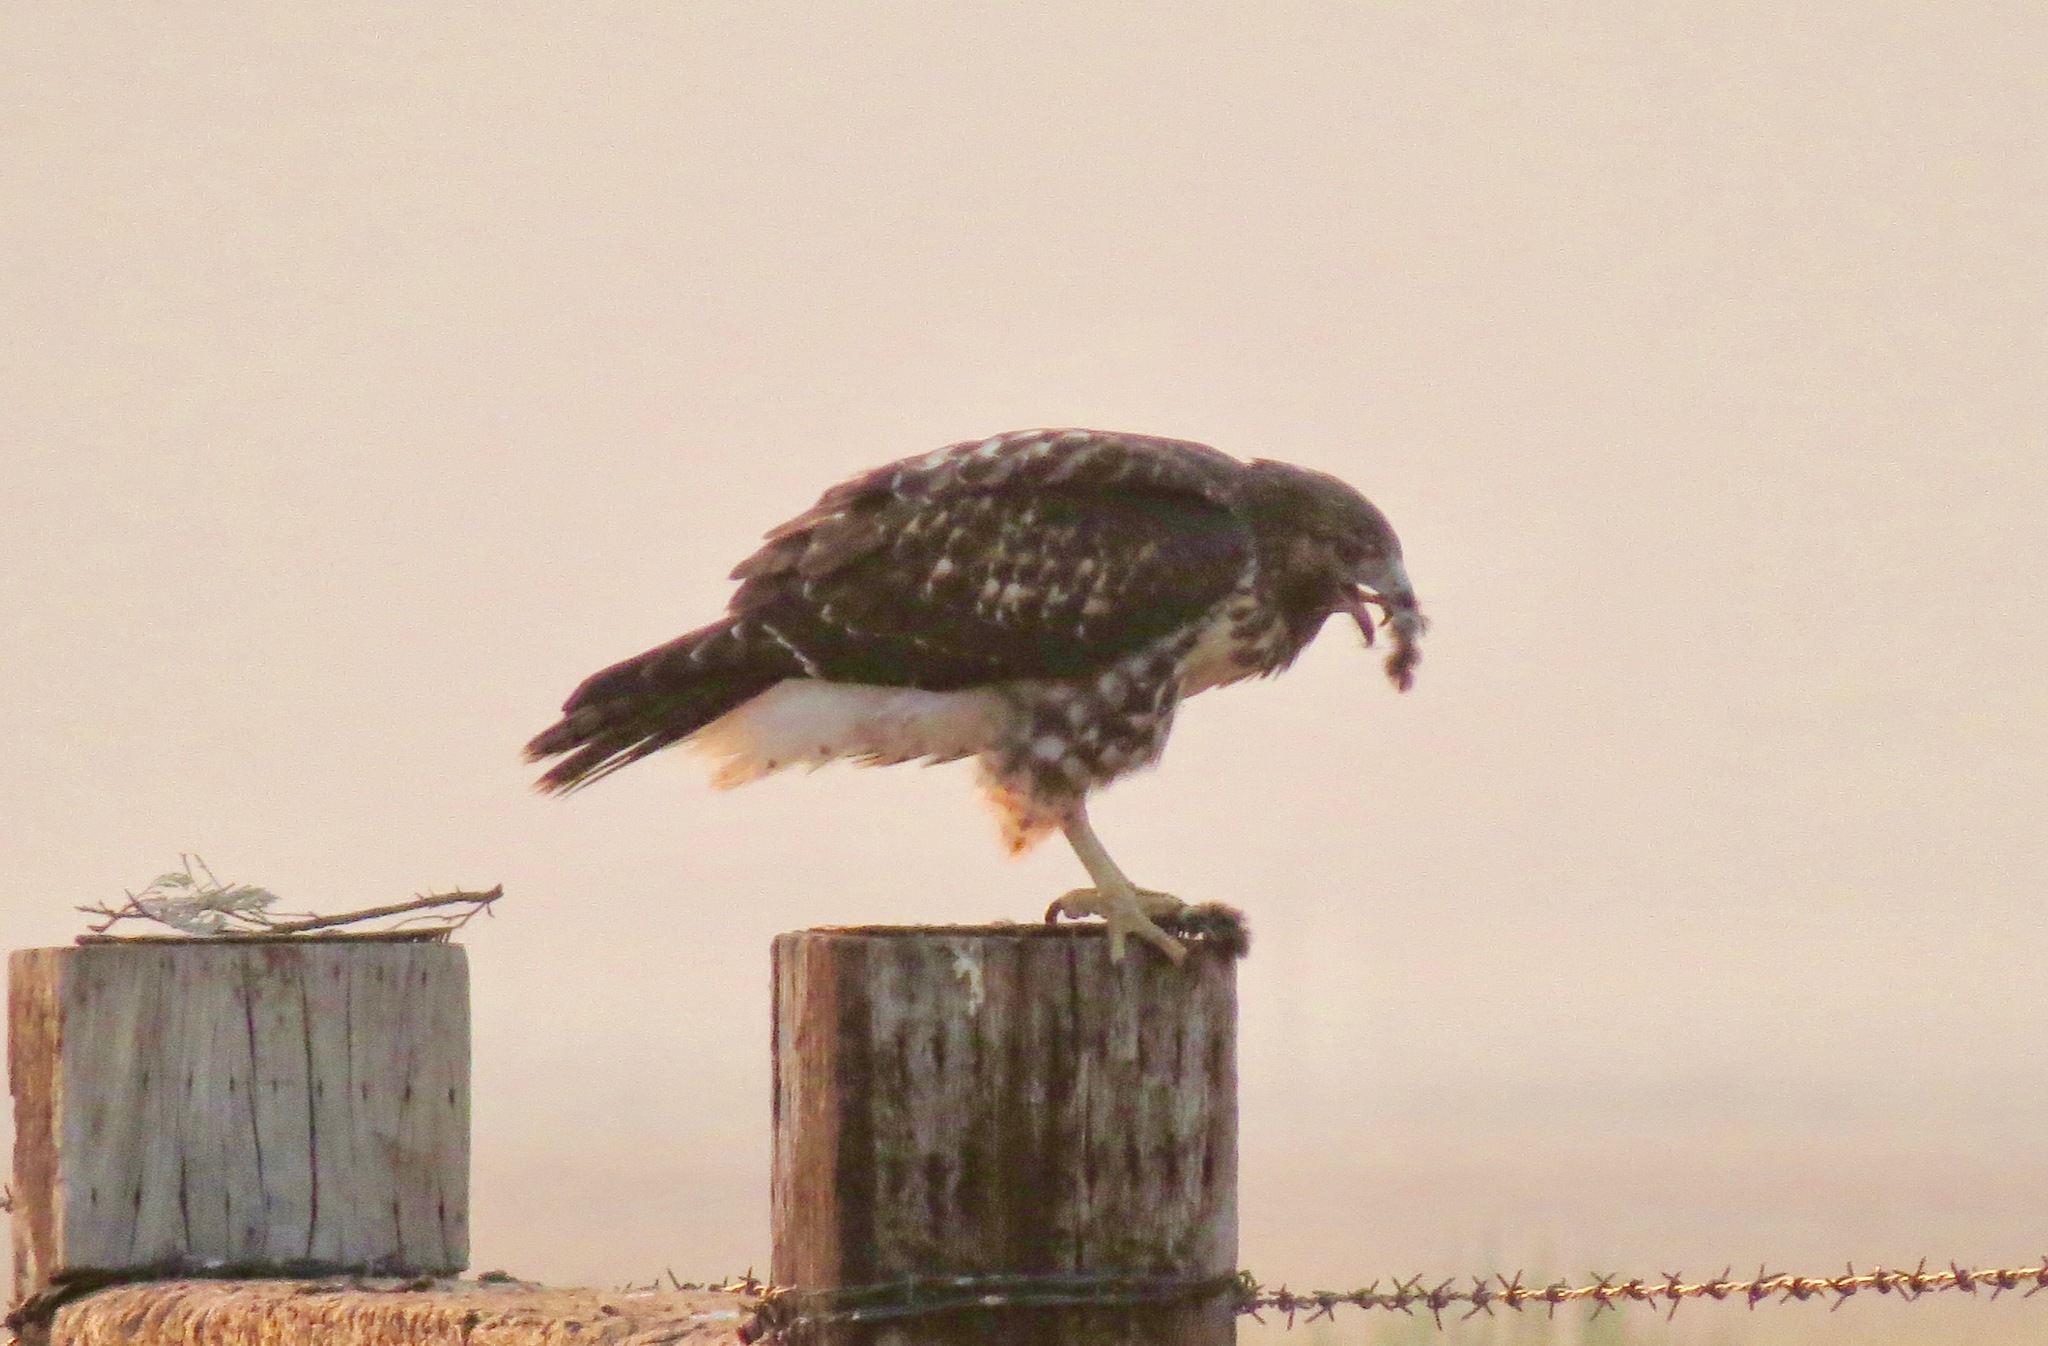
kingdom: Animalia
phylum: Chordata
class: Aves
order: Accipitriformes
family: Accipitridae
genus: Buteo
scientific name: Buteo jamaicensis
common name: Red-tailed hawk
